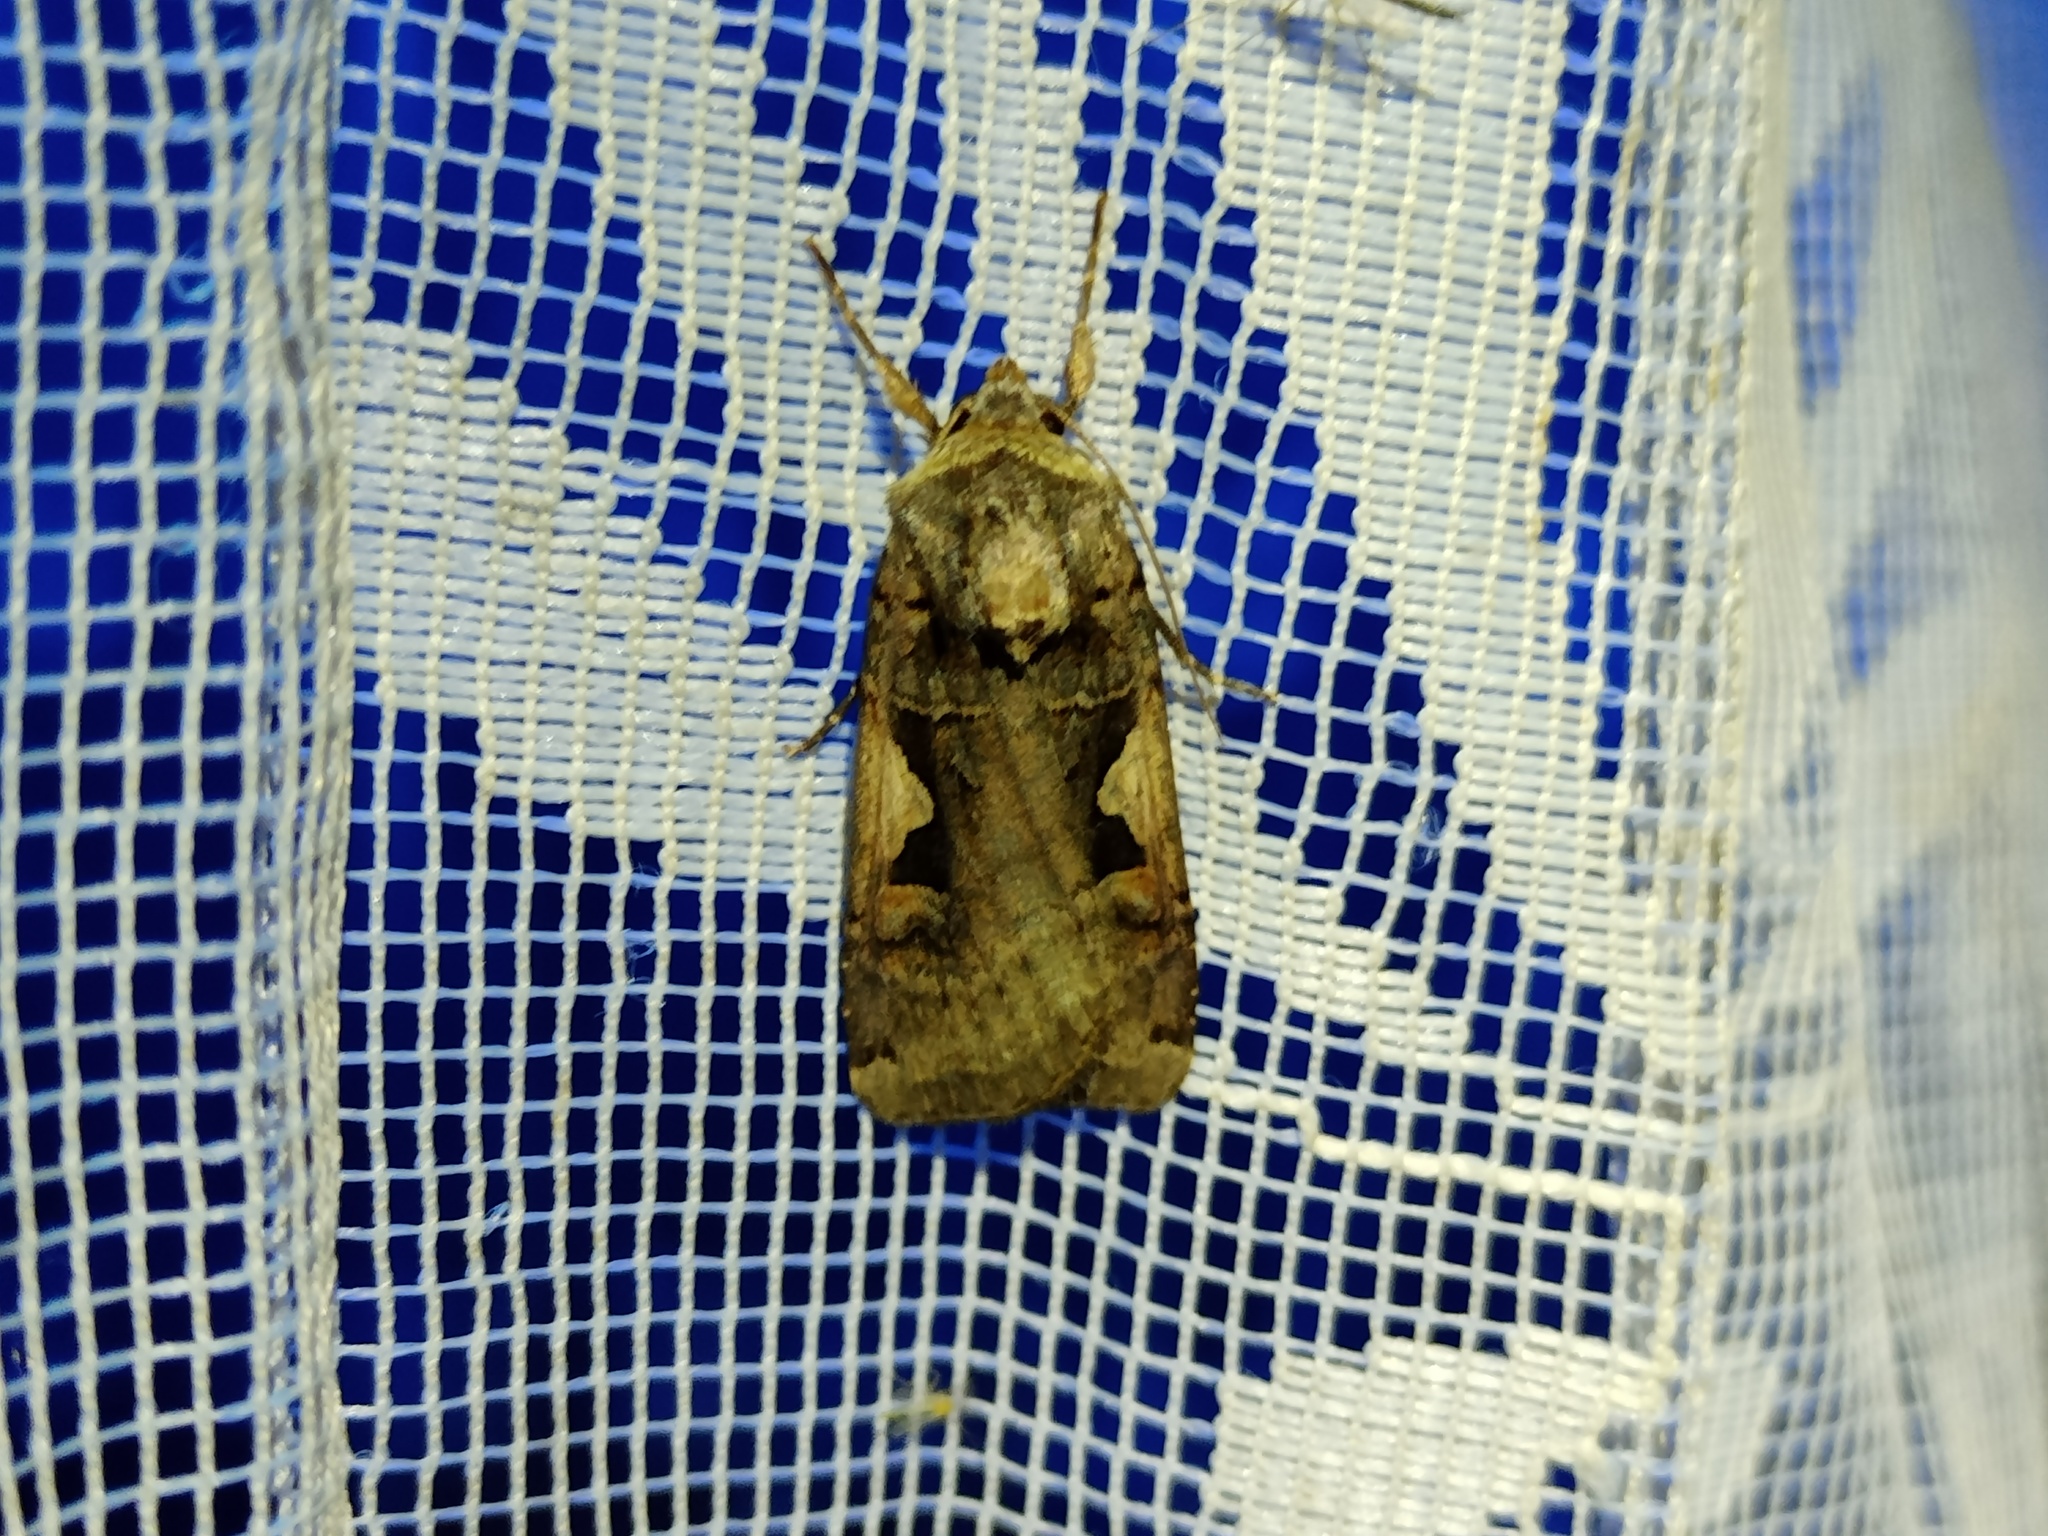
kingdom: Animalia
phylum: Arthropoda
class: Insecta
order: Lepidoptera
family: Noctuidae
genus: Xestia
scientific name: Xestia c-nigrum
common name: Setaceous hebrew character
